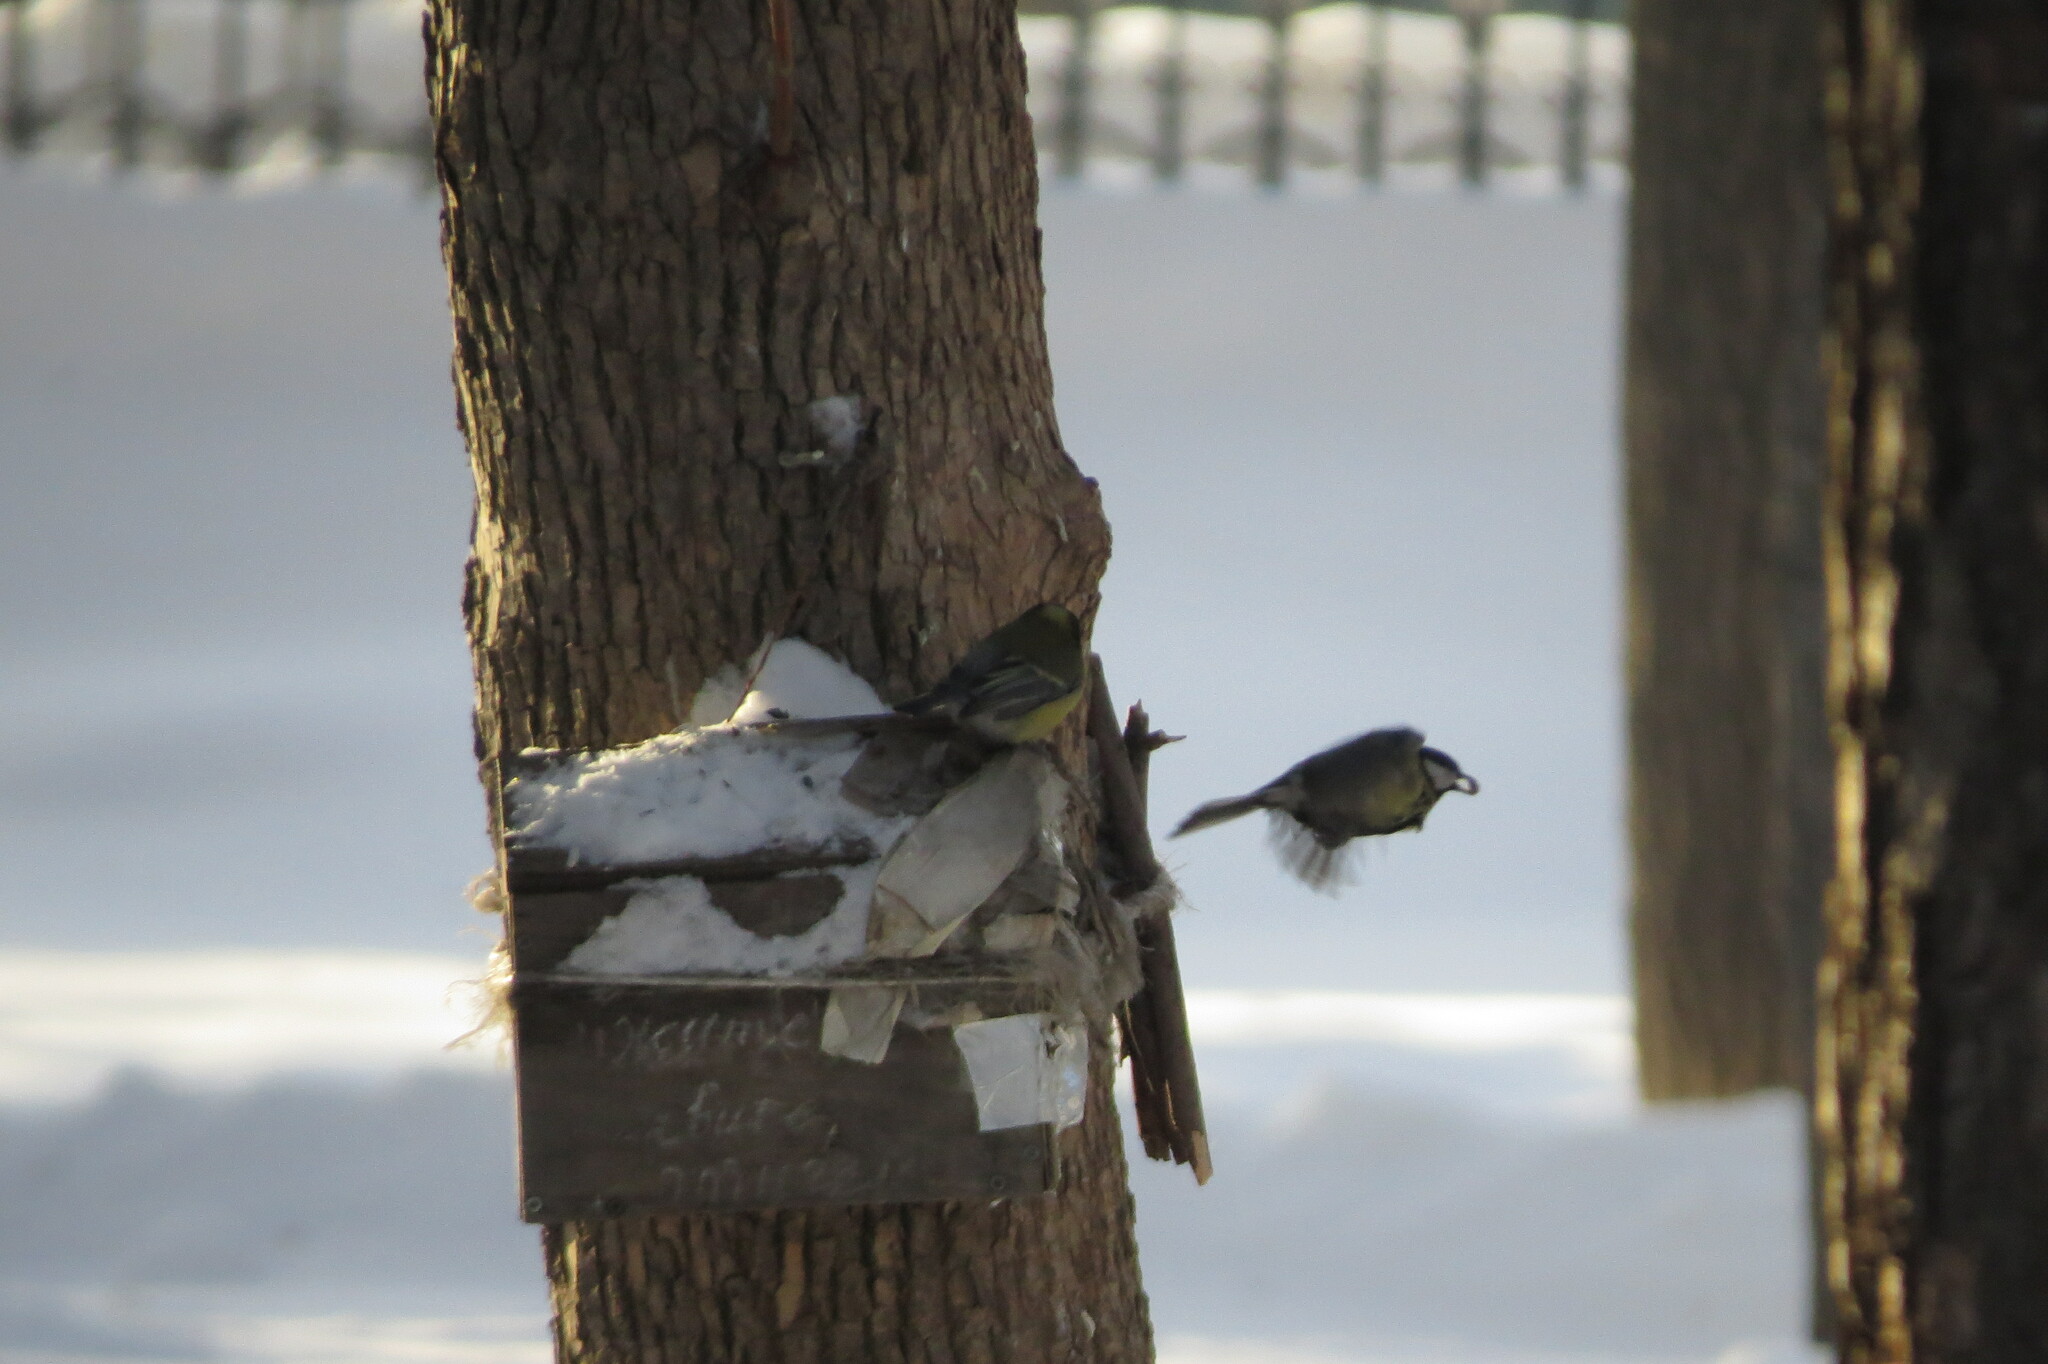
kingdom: Animalia
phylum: Chordata
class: Aves
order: Passeriformes
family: Paridae
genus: Parus
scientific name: Parus major
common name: Great tit
